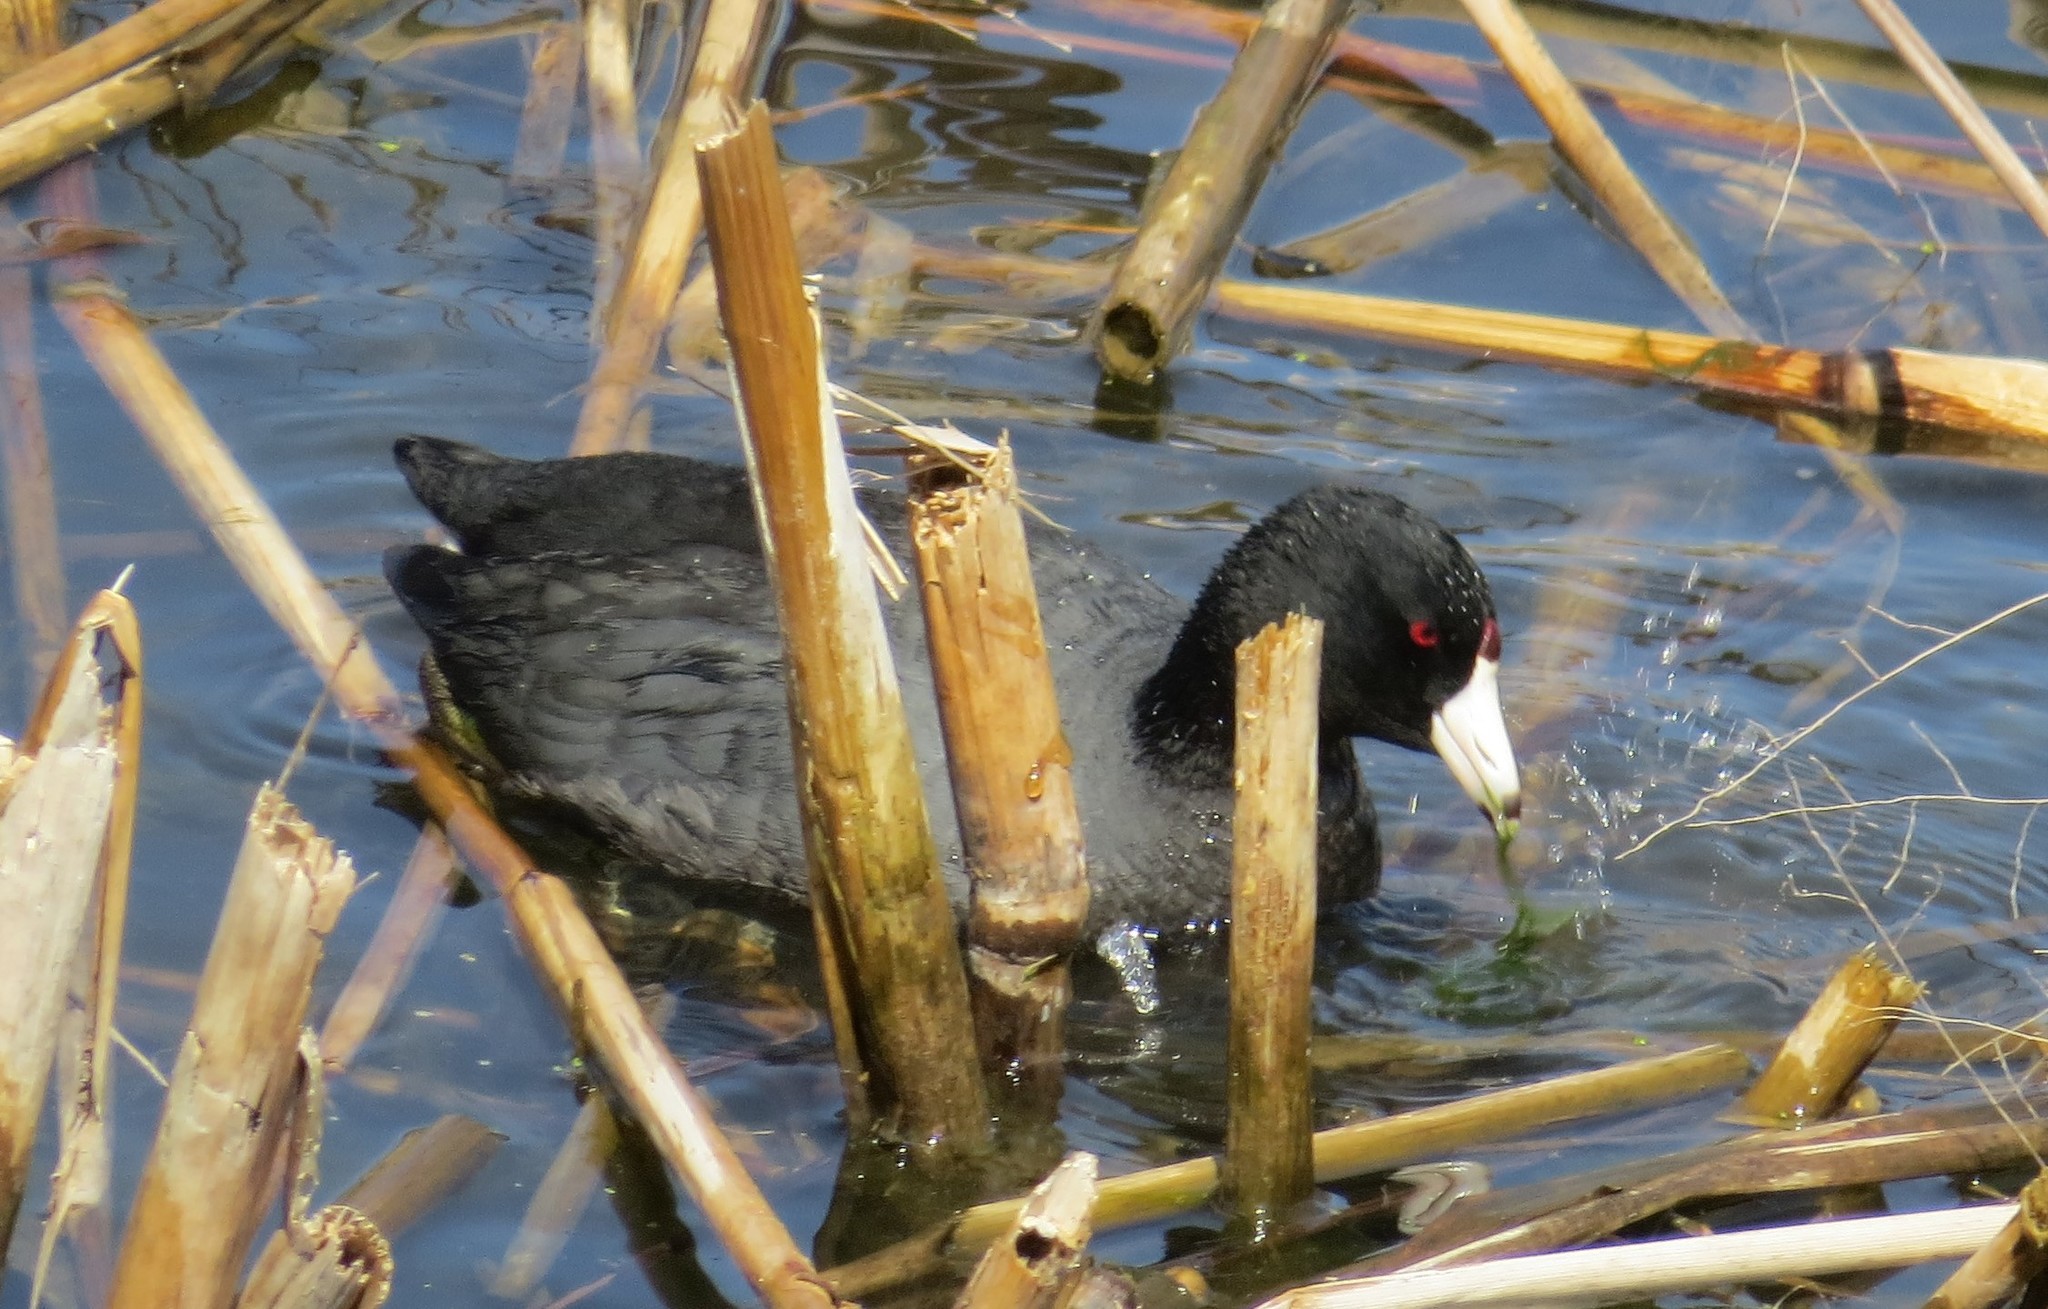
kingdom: Animalia
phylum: Chordata
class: Aves
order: Gruiformes
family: Rallidae
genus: Fulica
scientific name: Fulica americana
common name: American coot
